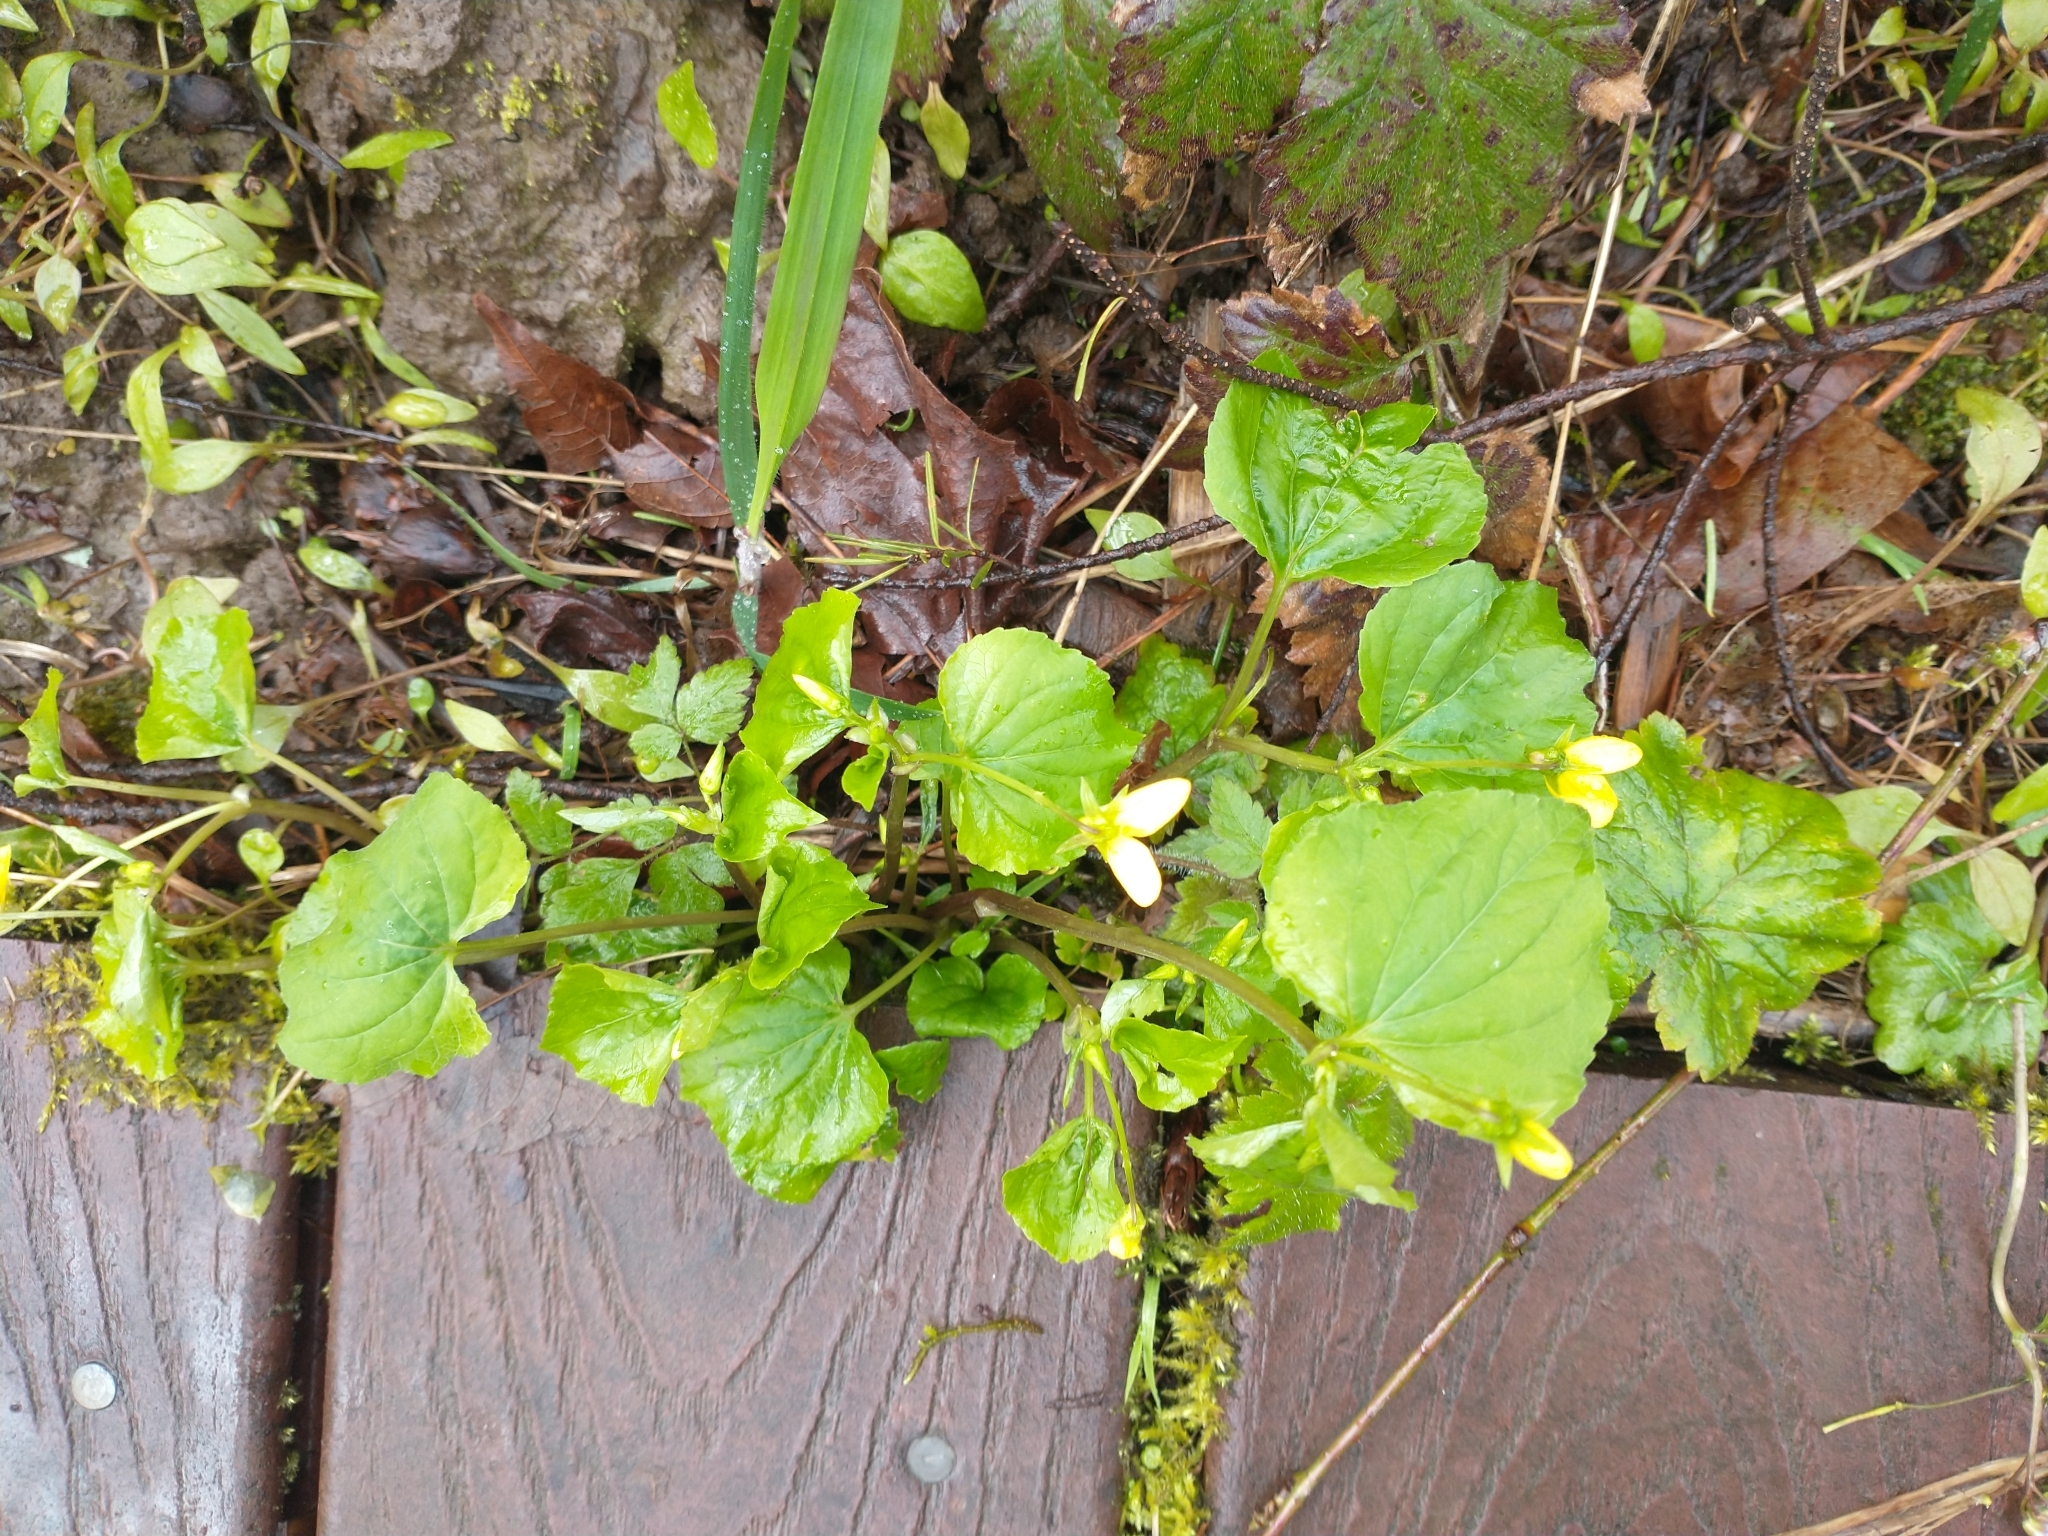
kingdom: Plantae
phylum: Tracheophyta
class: Magnoliopsida
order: Malpighiales
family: Violaceae
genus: Viola
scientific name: Viola glabella
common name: Stream violet
